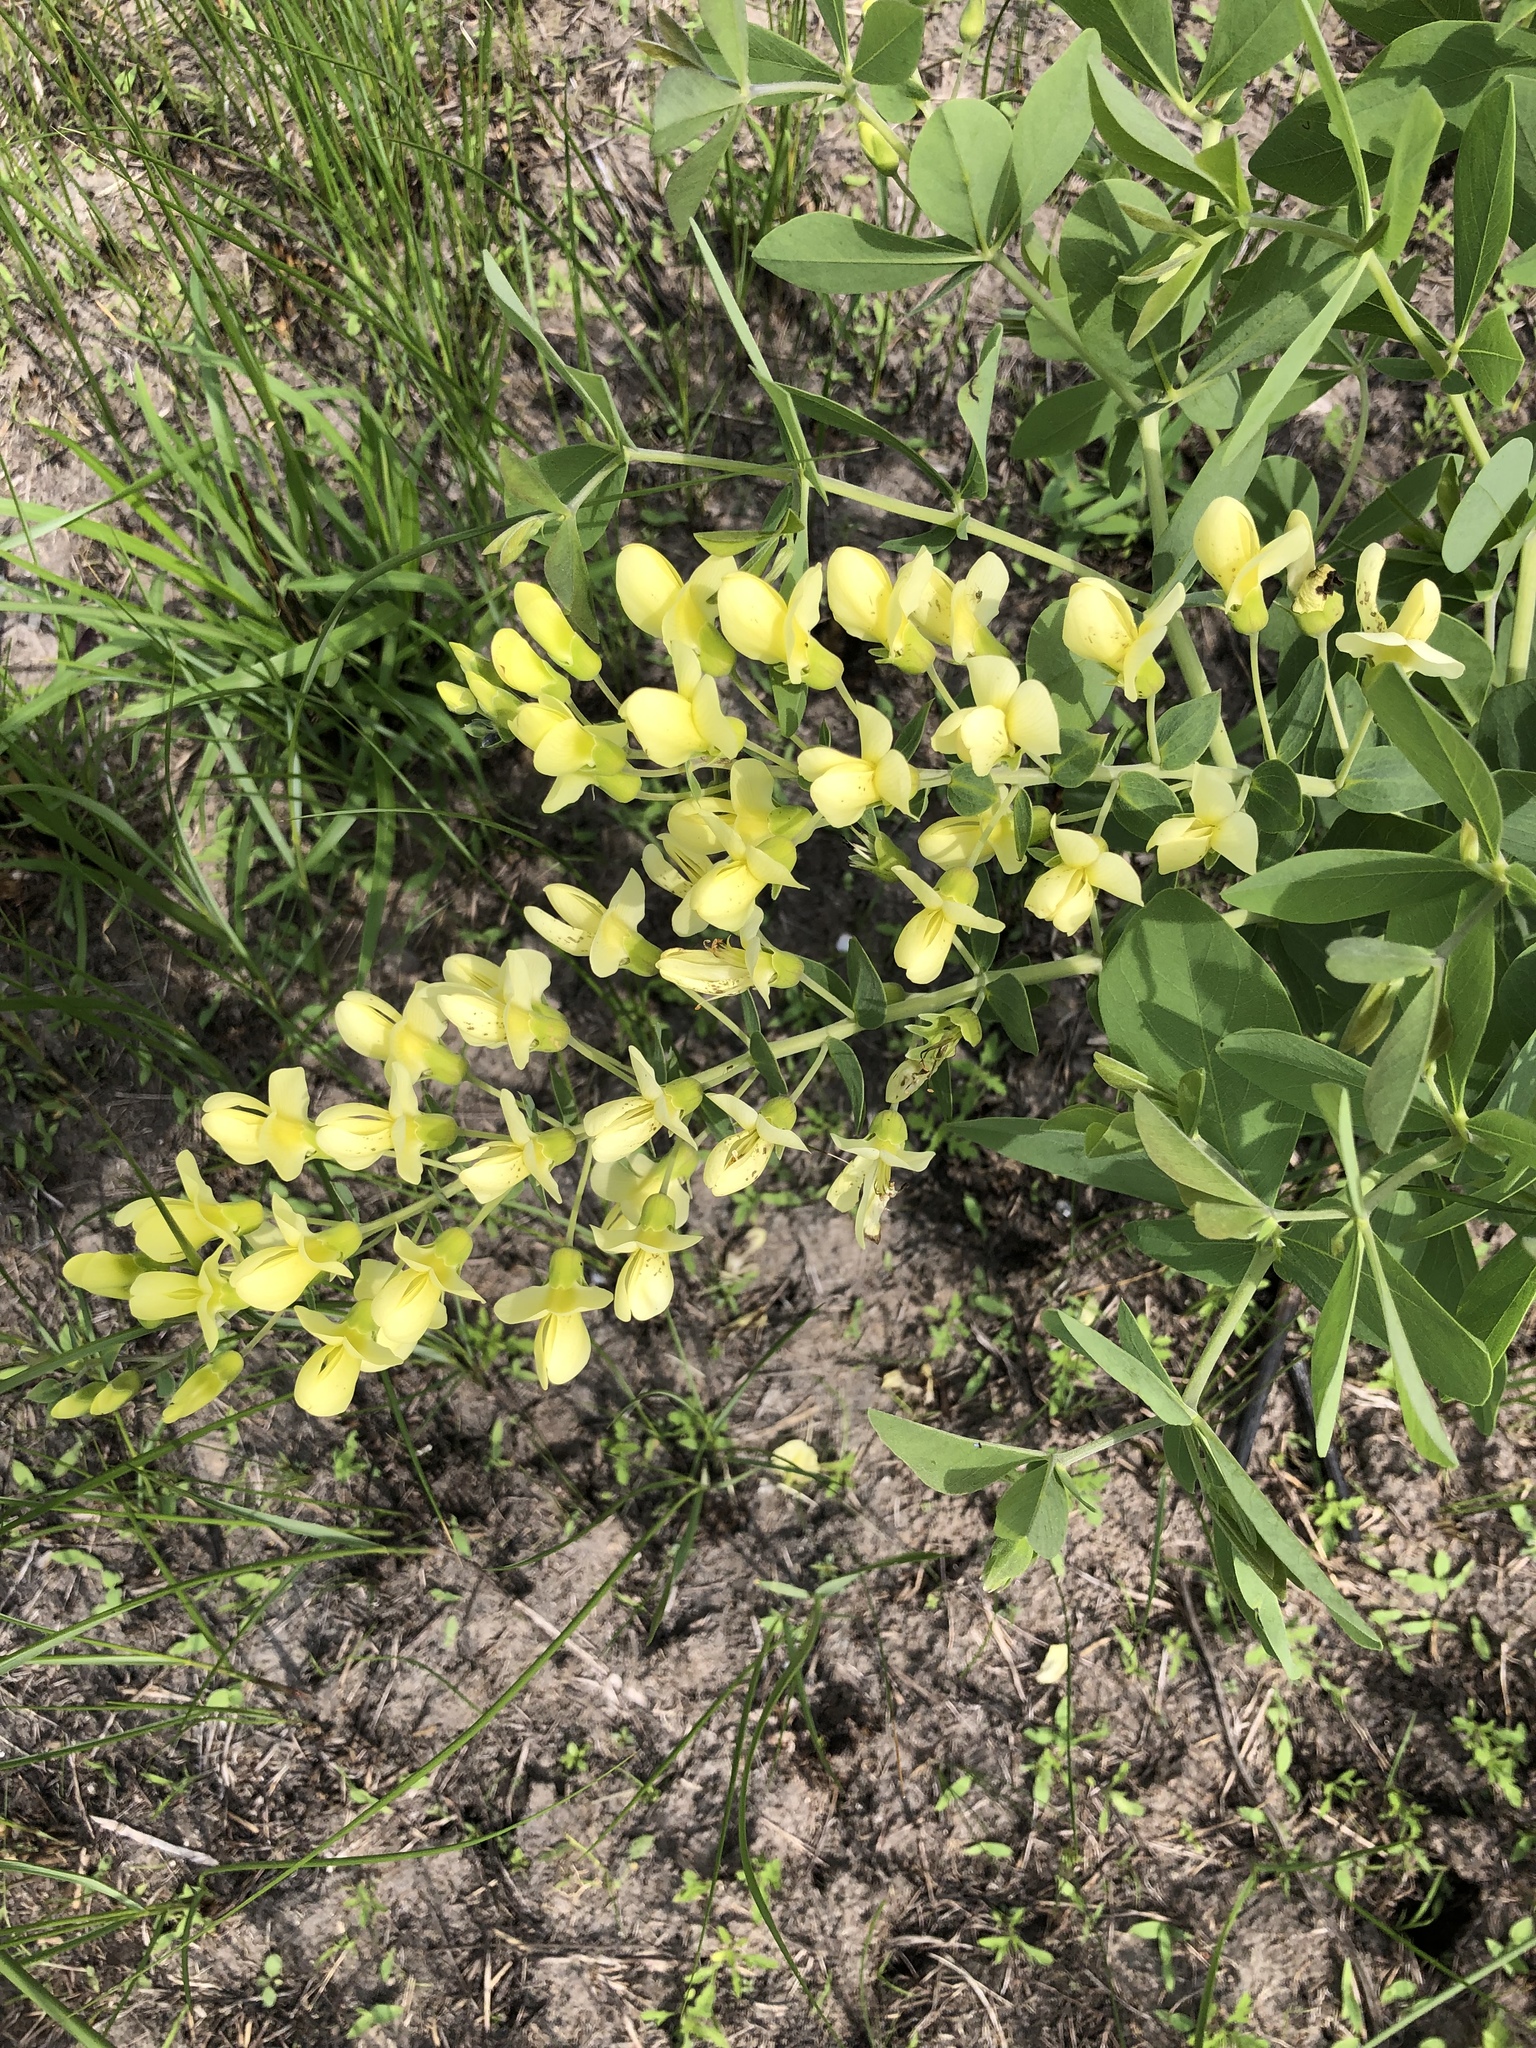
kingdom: Plantae
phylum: Tracheophyta
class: Magnoliopsida
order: Fabales
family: Fabaceae
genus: Baptisia
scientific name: Baptisia bracteata
